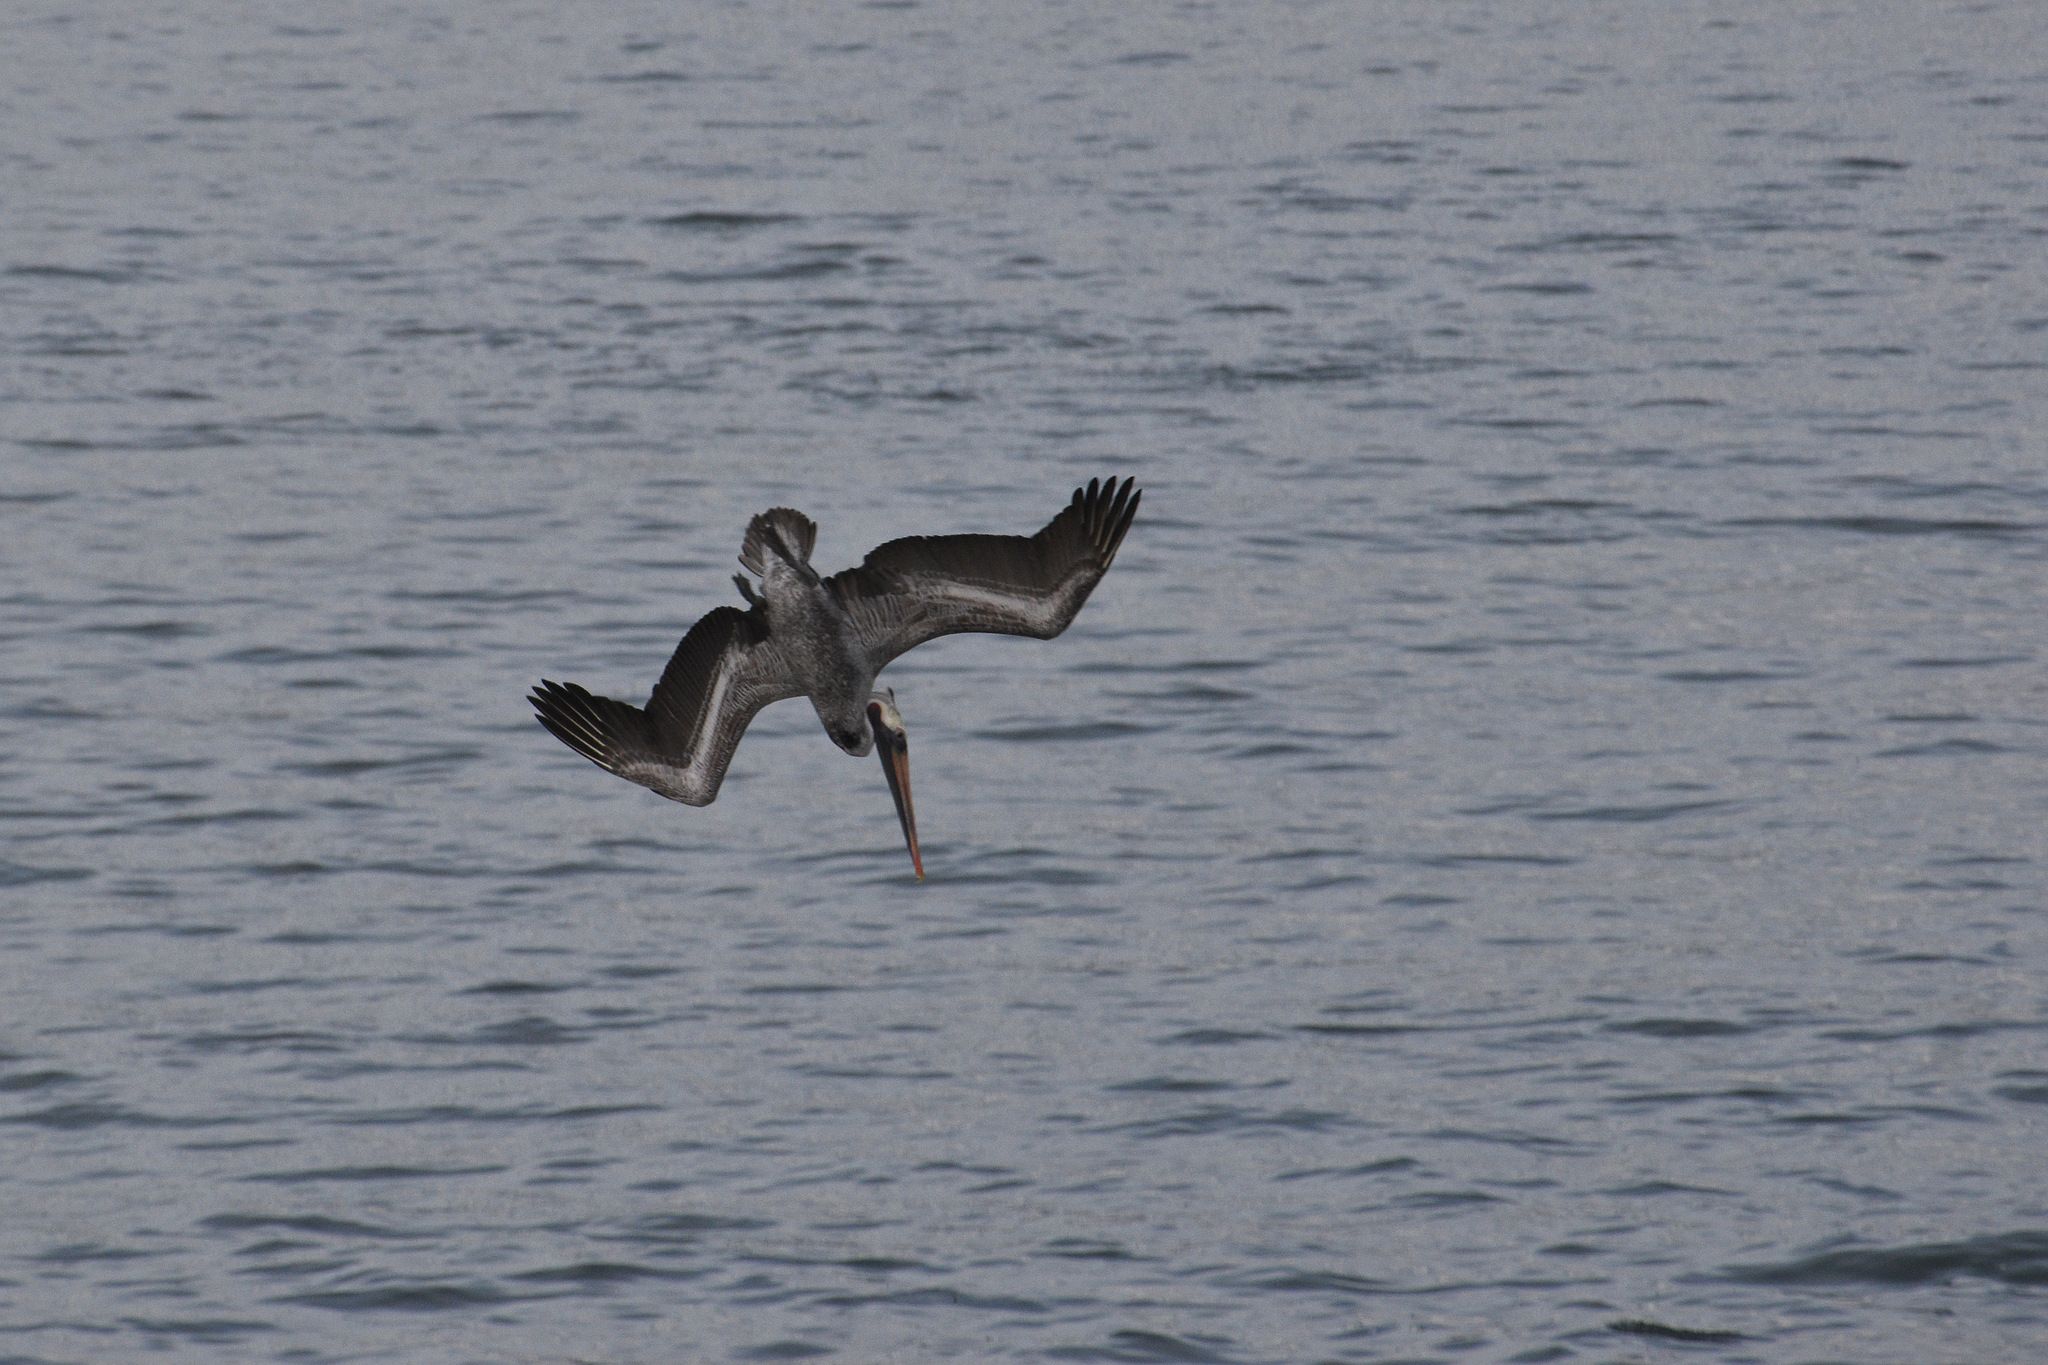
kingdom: Animalia
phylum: Chordata
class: Aves
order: Pelecaniformes
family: Pelecanidae
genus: Pelecanus
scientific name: Pelecanus occidentalis
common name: Brown pelican
